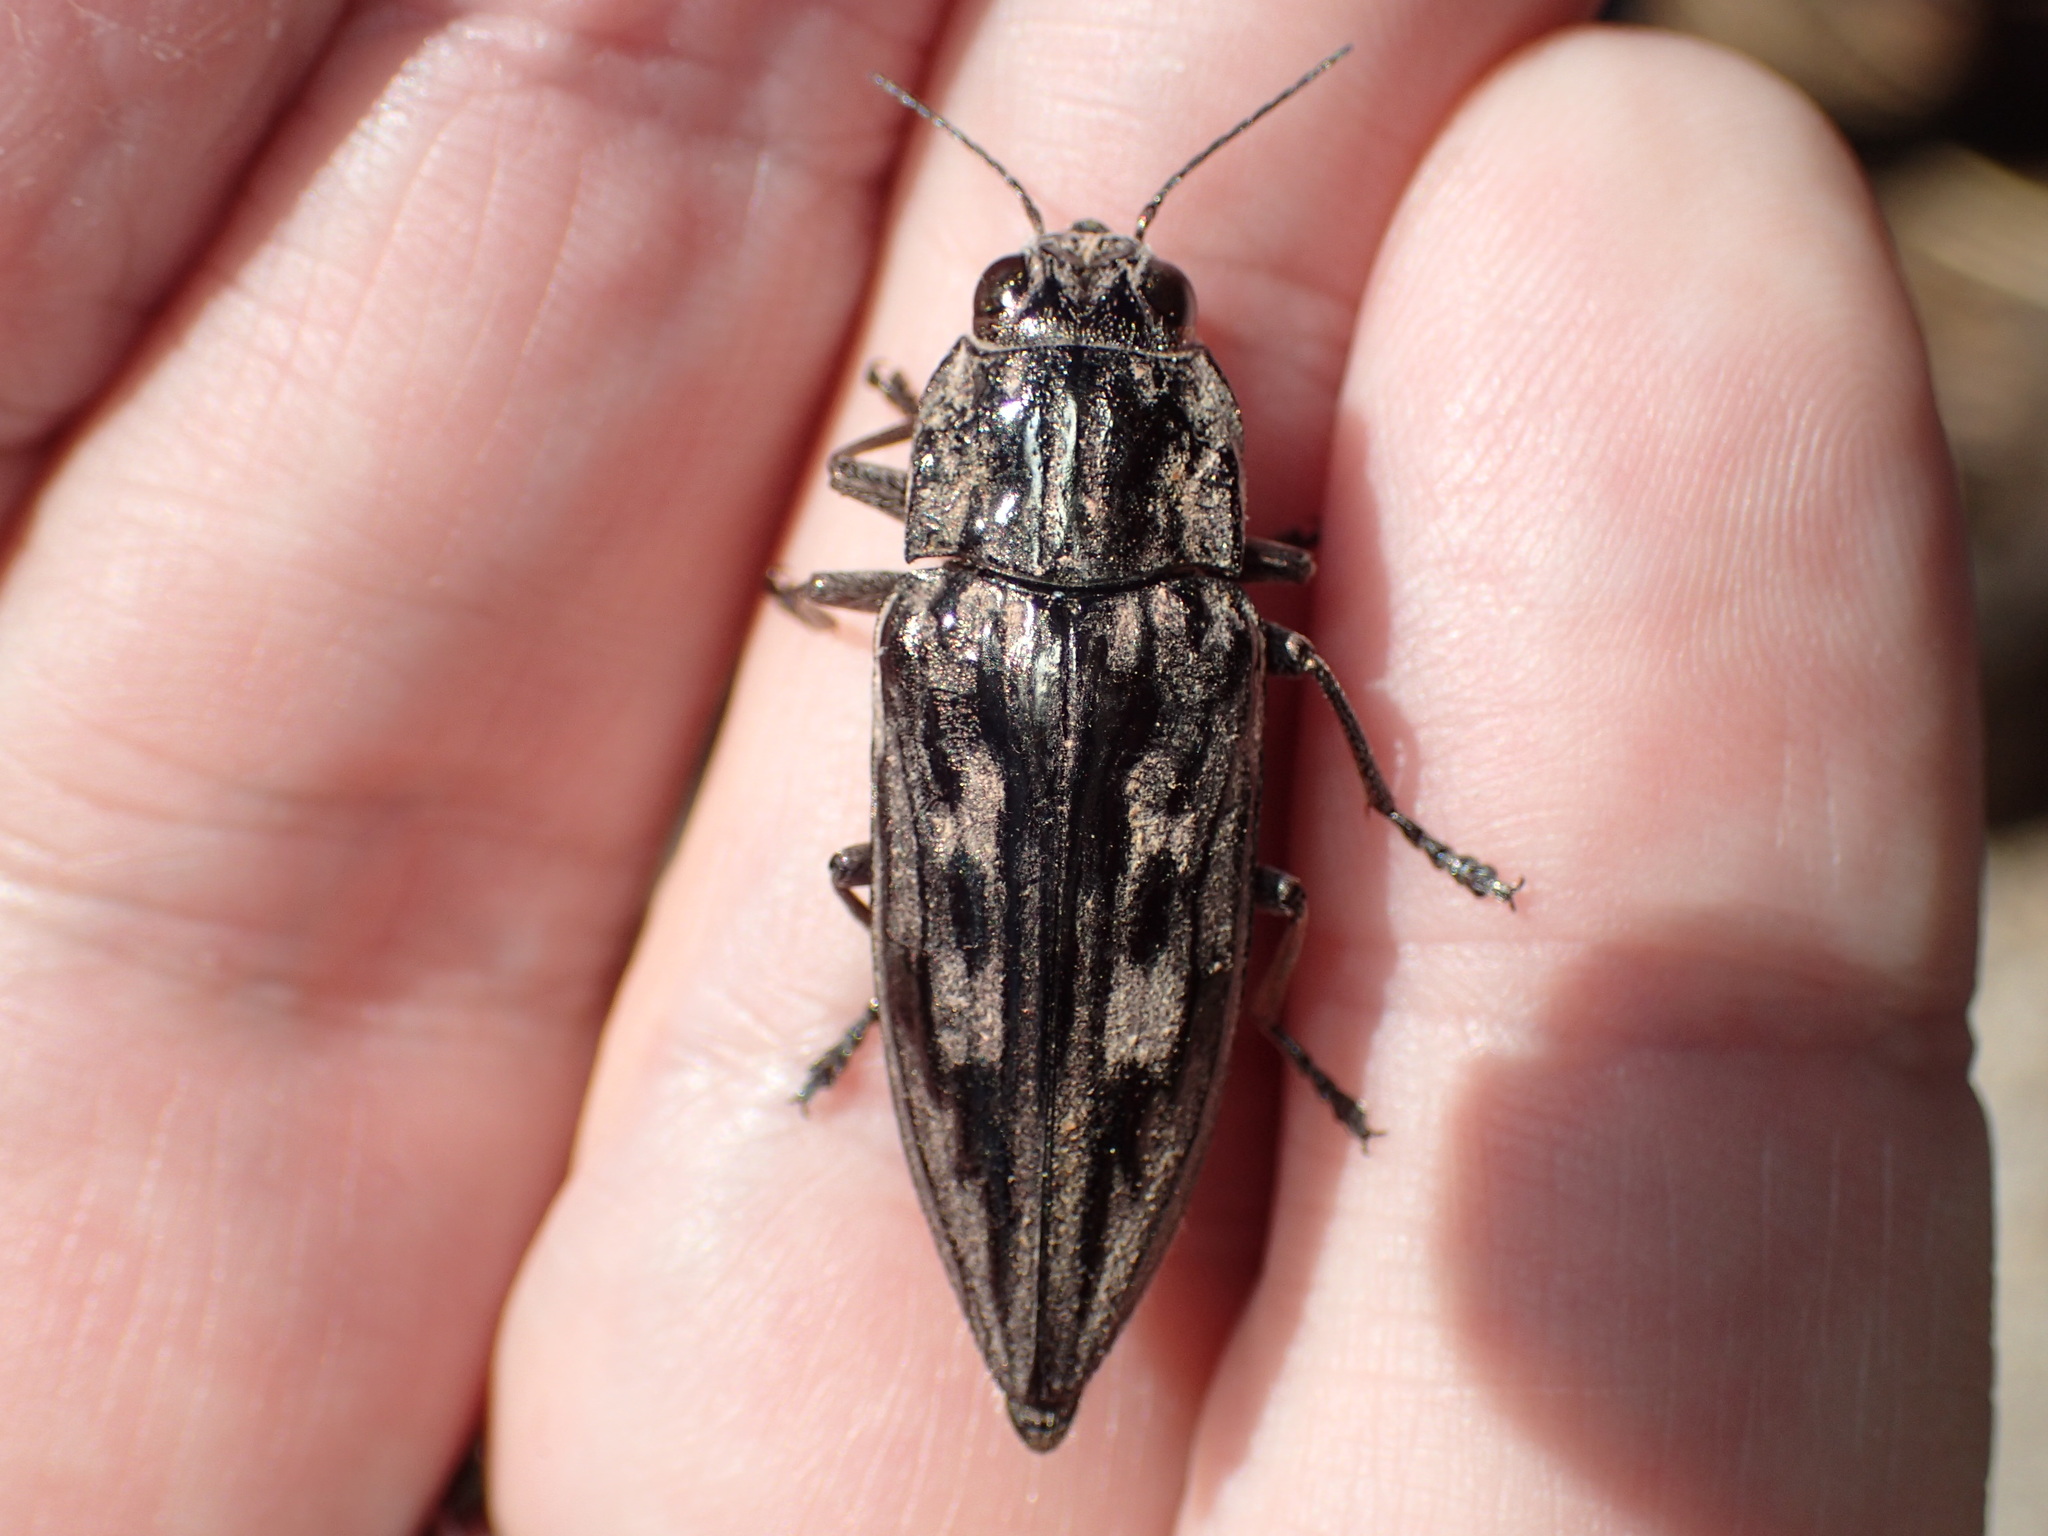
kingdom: Animalia
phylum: Arthropoda
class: Insecta
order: Coleoptera
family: Buprestidae
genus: Chalcophora
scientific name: Chalcophora virginiensis
